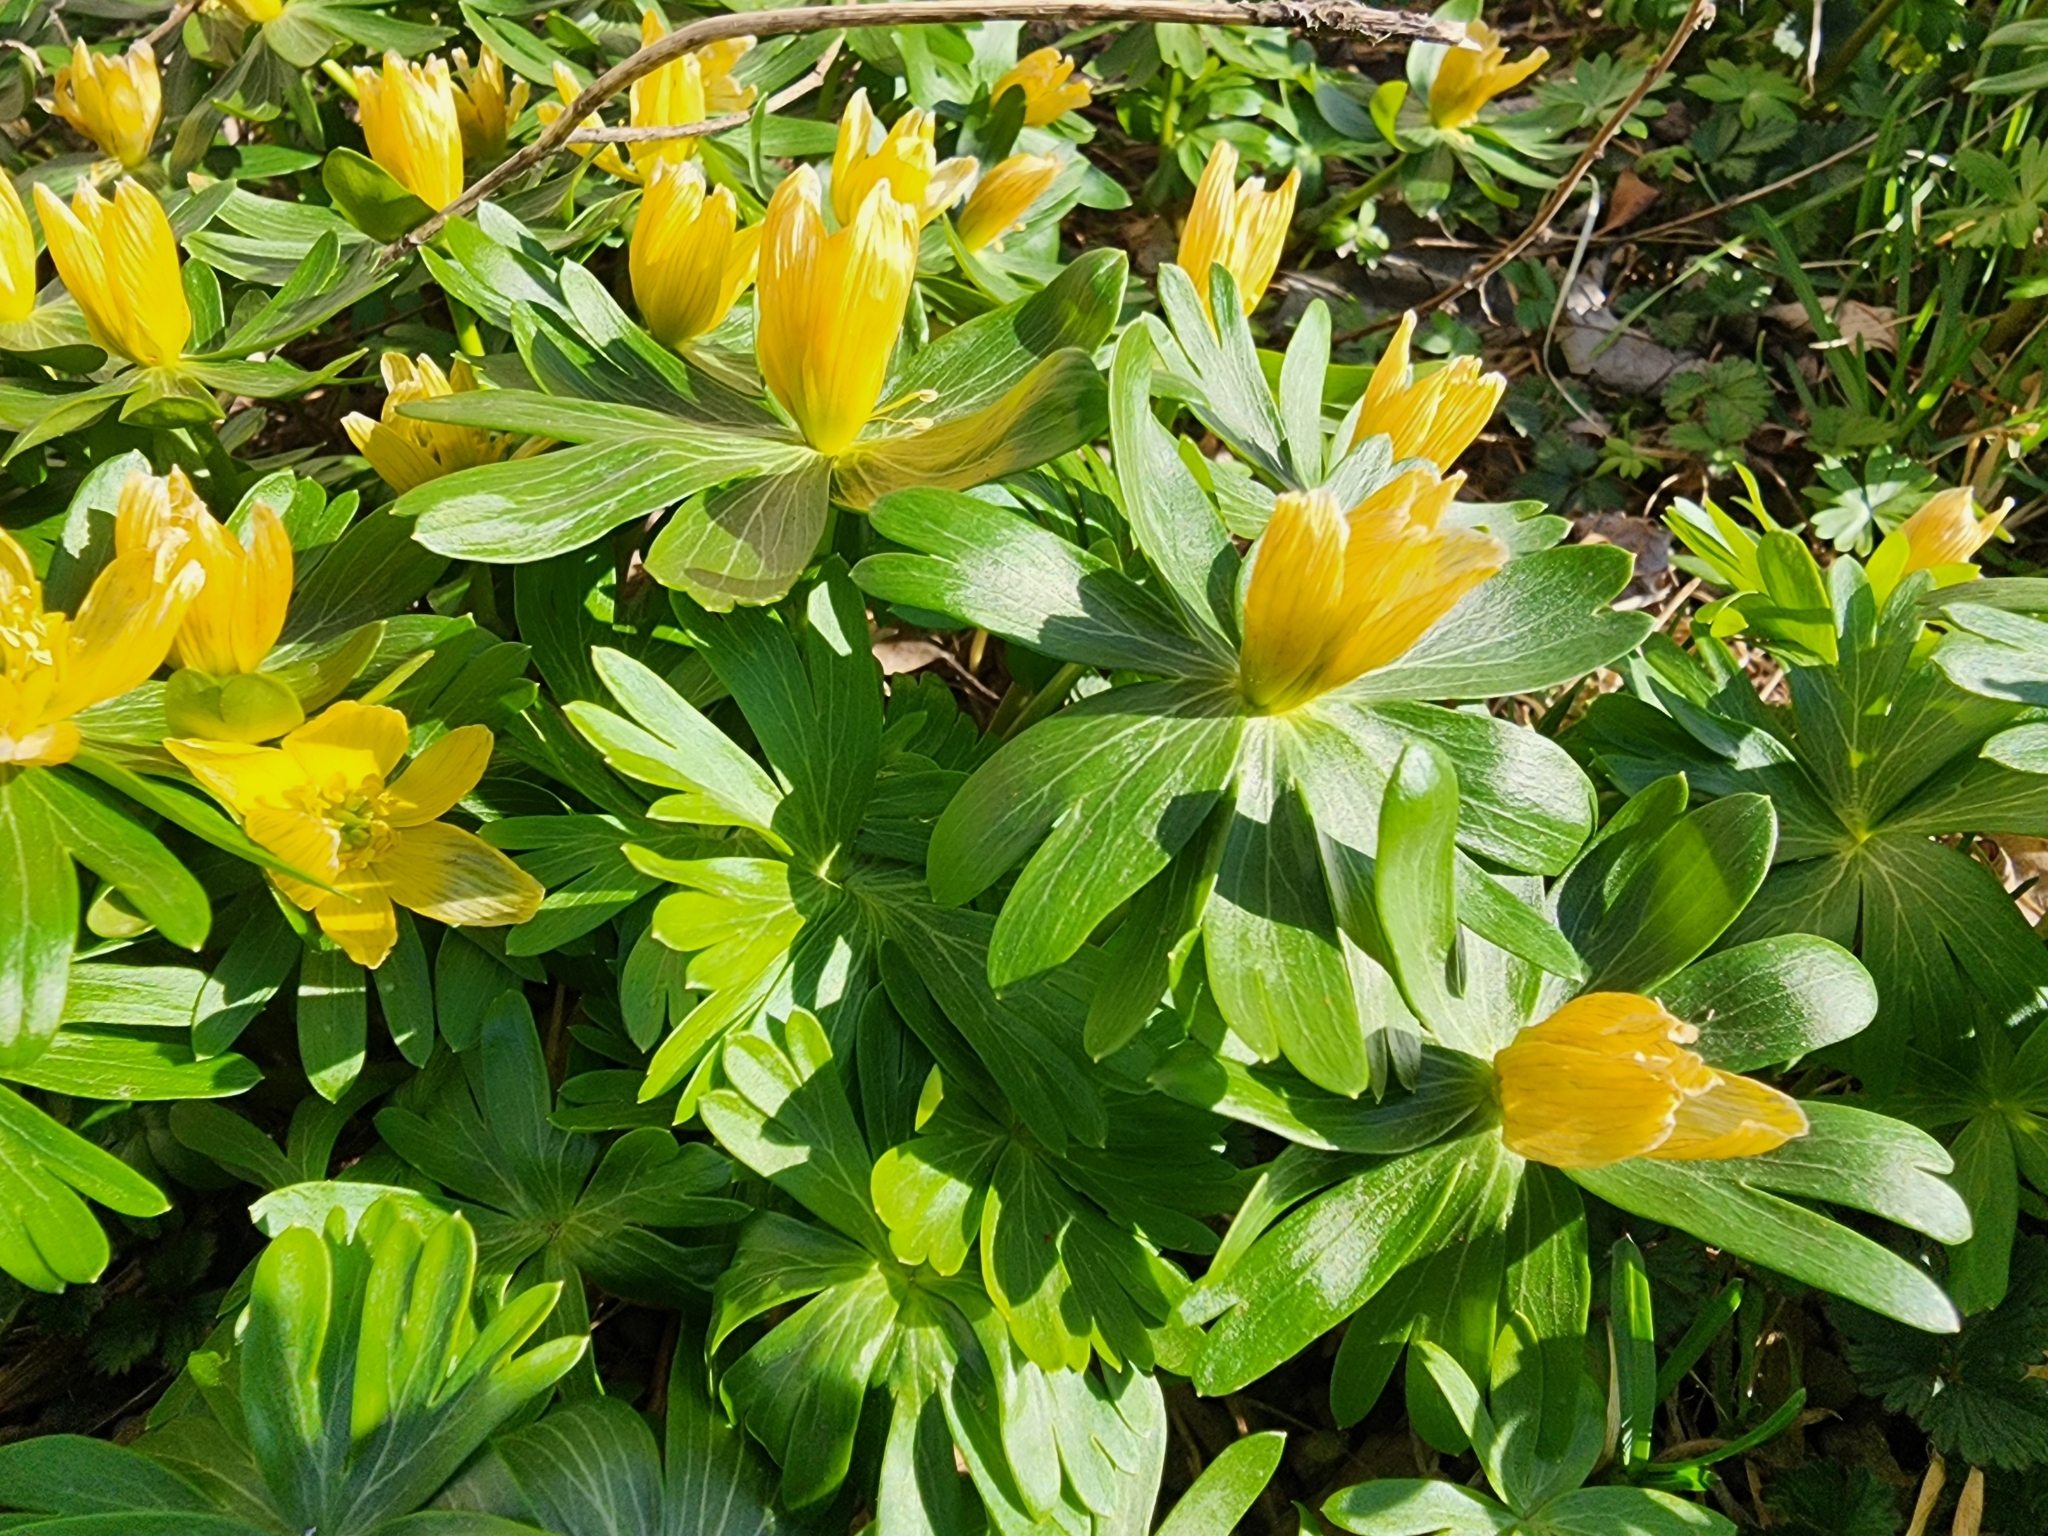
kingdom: Plantae
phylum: Tracheophyta
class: Magnoliopsida
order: Ranunculales
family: Ranunculaceae
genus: Eranthis
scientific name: Eranthis hyemalis
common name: Winter aconite
